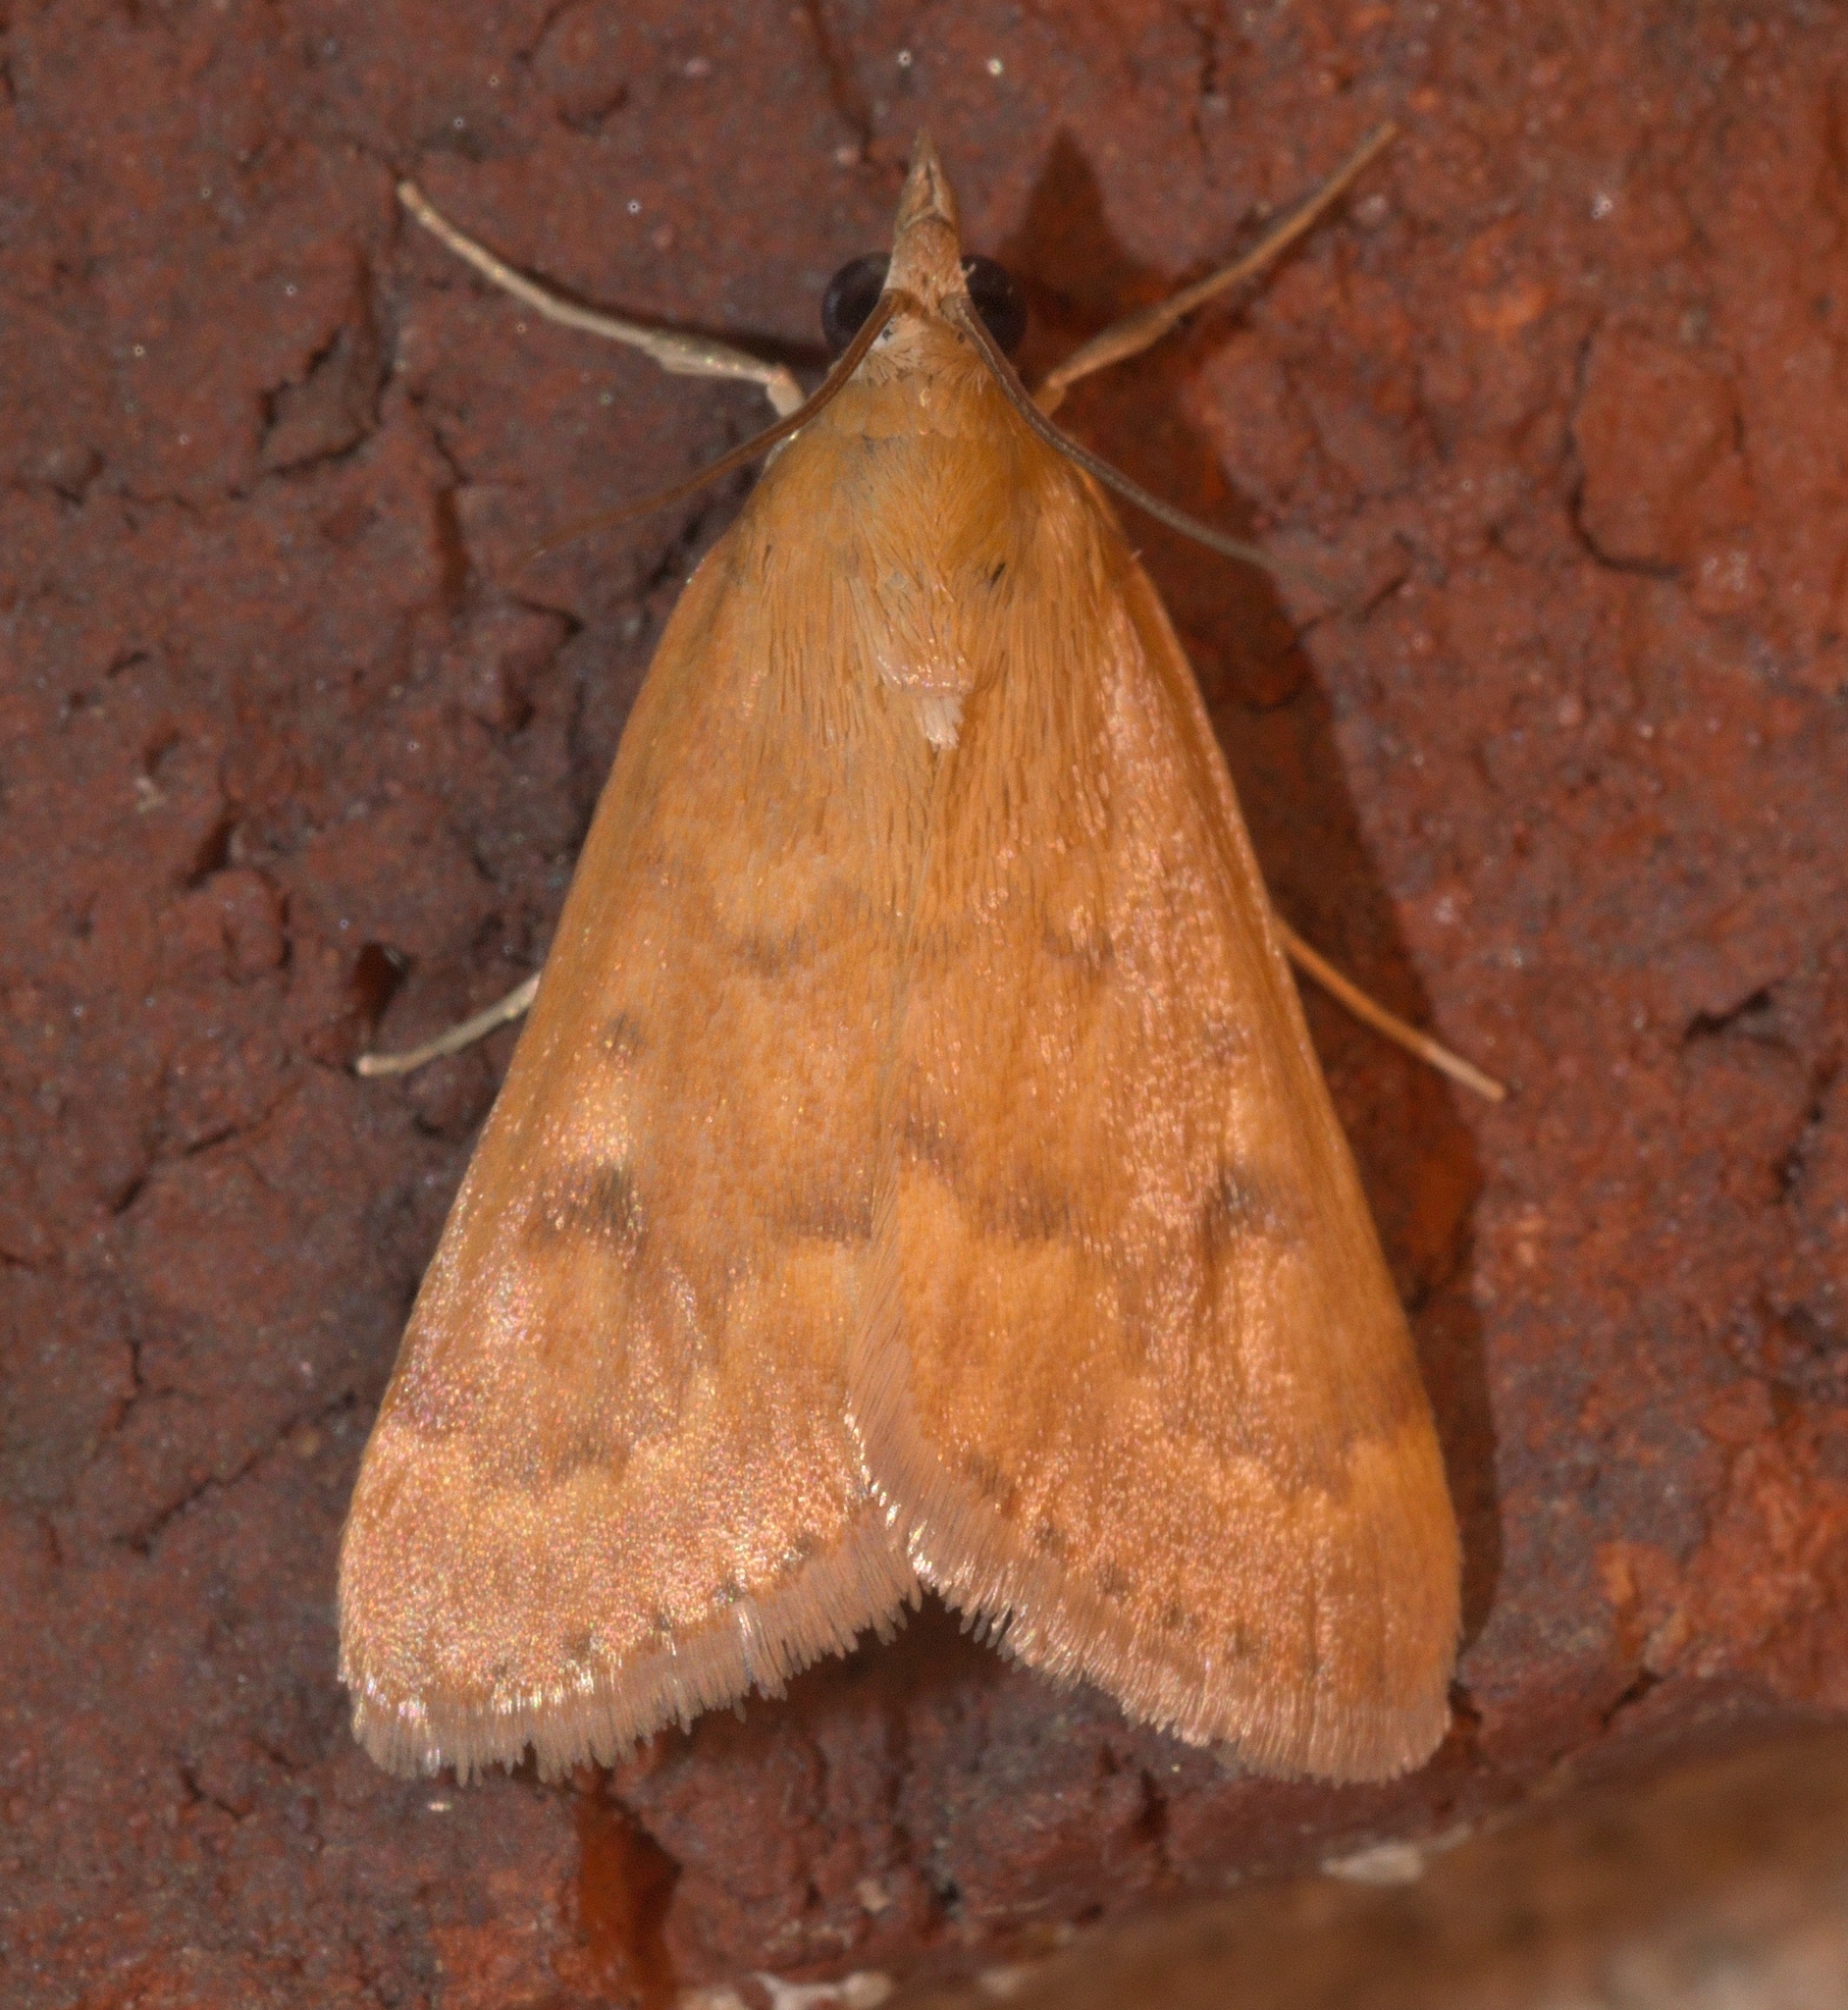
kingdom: Animalia
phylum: Arthropoda
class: Insecta
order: Lepidoptera
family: Crambidae
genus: Achyra
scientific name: Achyra rantalis
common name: Garden webworm
